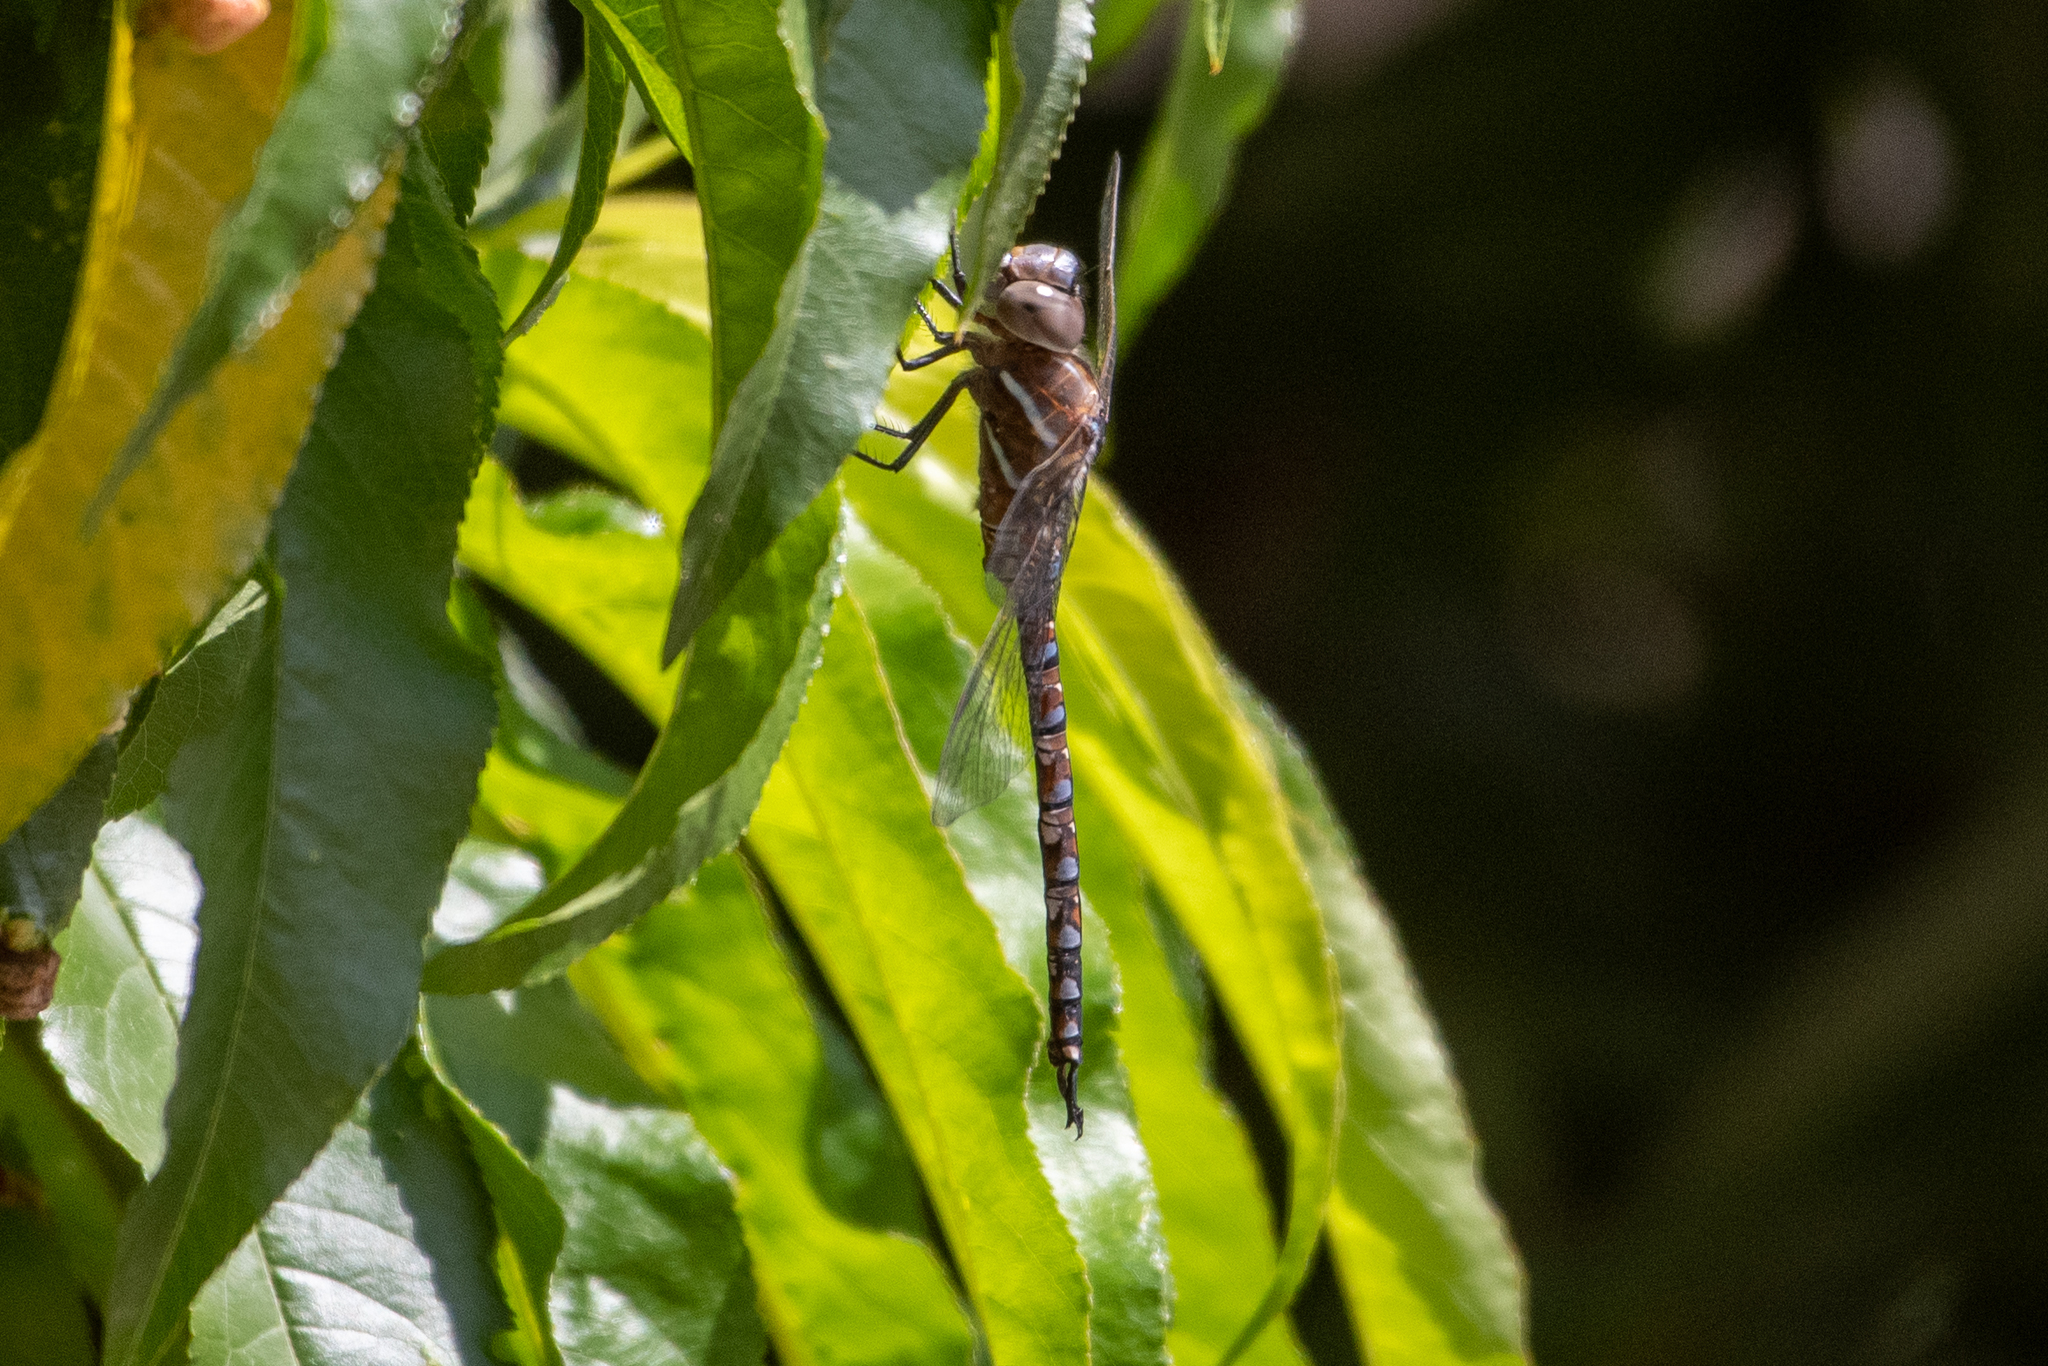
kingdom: Animalia
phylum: Arthropoda
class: Insecta
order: Odonata
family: Aeshnidae
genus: Rhionaeschna
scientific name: Rhionaeschna multicolor
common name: Blue-eyed darner
